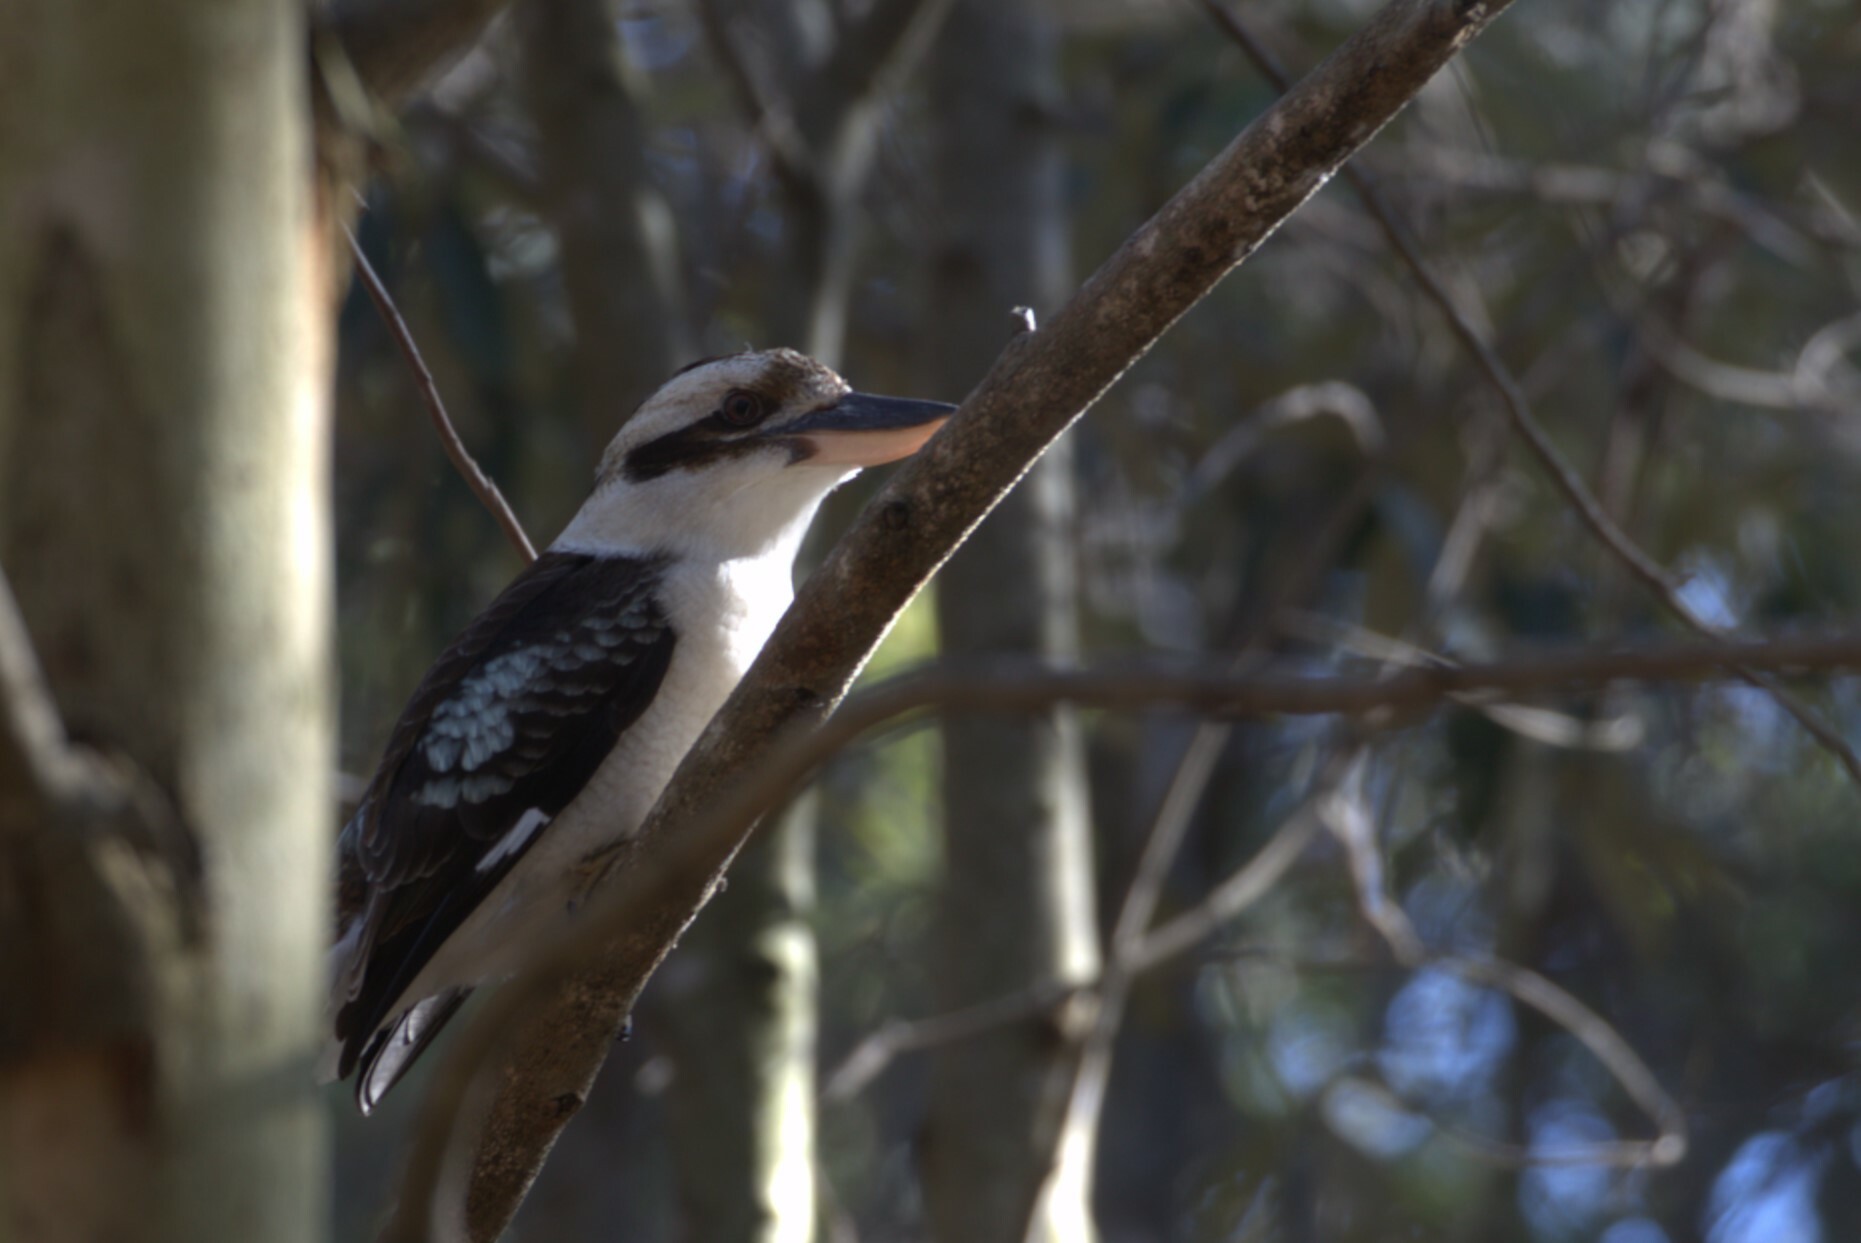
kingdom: Animalia
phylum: Chordata
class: Aves
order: Coraciiformes
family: Alcedinidae
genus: Dacelo
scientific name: Dacelo novaeguineae
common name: Laughing kookaburra
